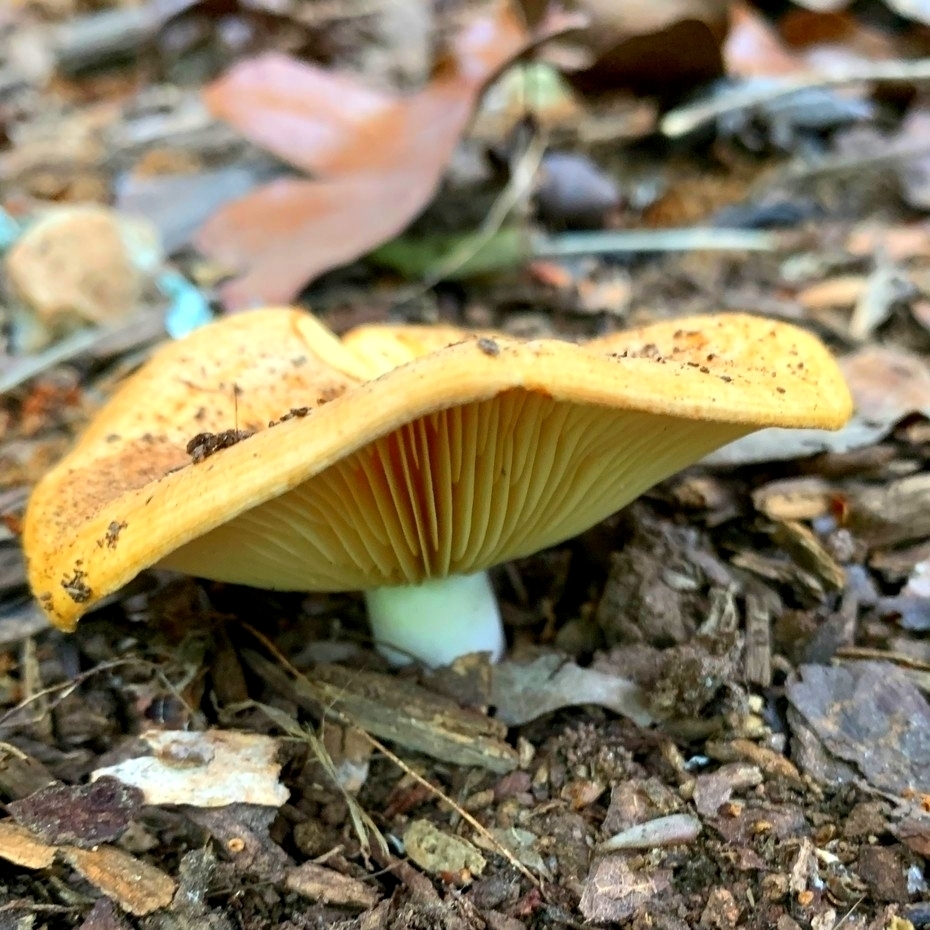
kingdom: Fungi
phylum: Basidiomycota
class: Agaricomycetes
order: Russulales
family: Russulaceae
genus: Lactarius
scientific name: Lactarius psammicola
